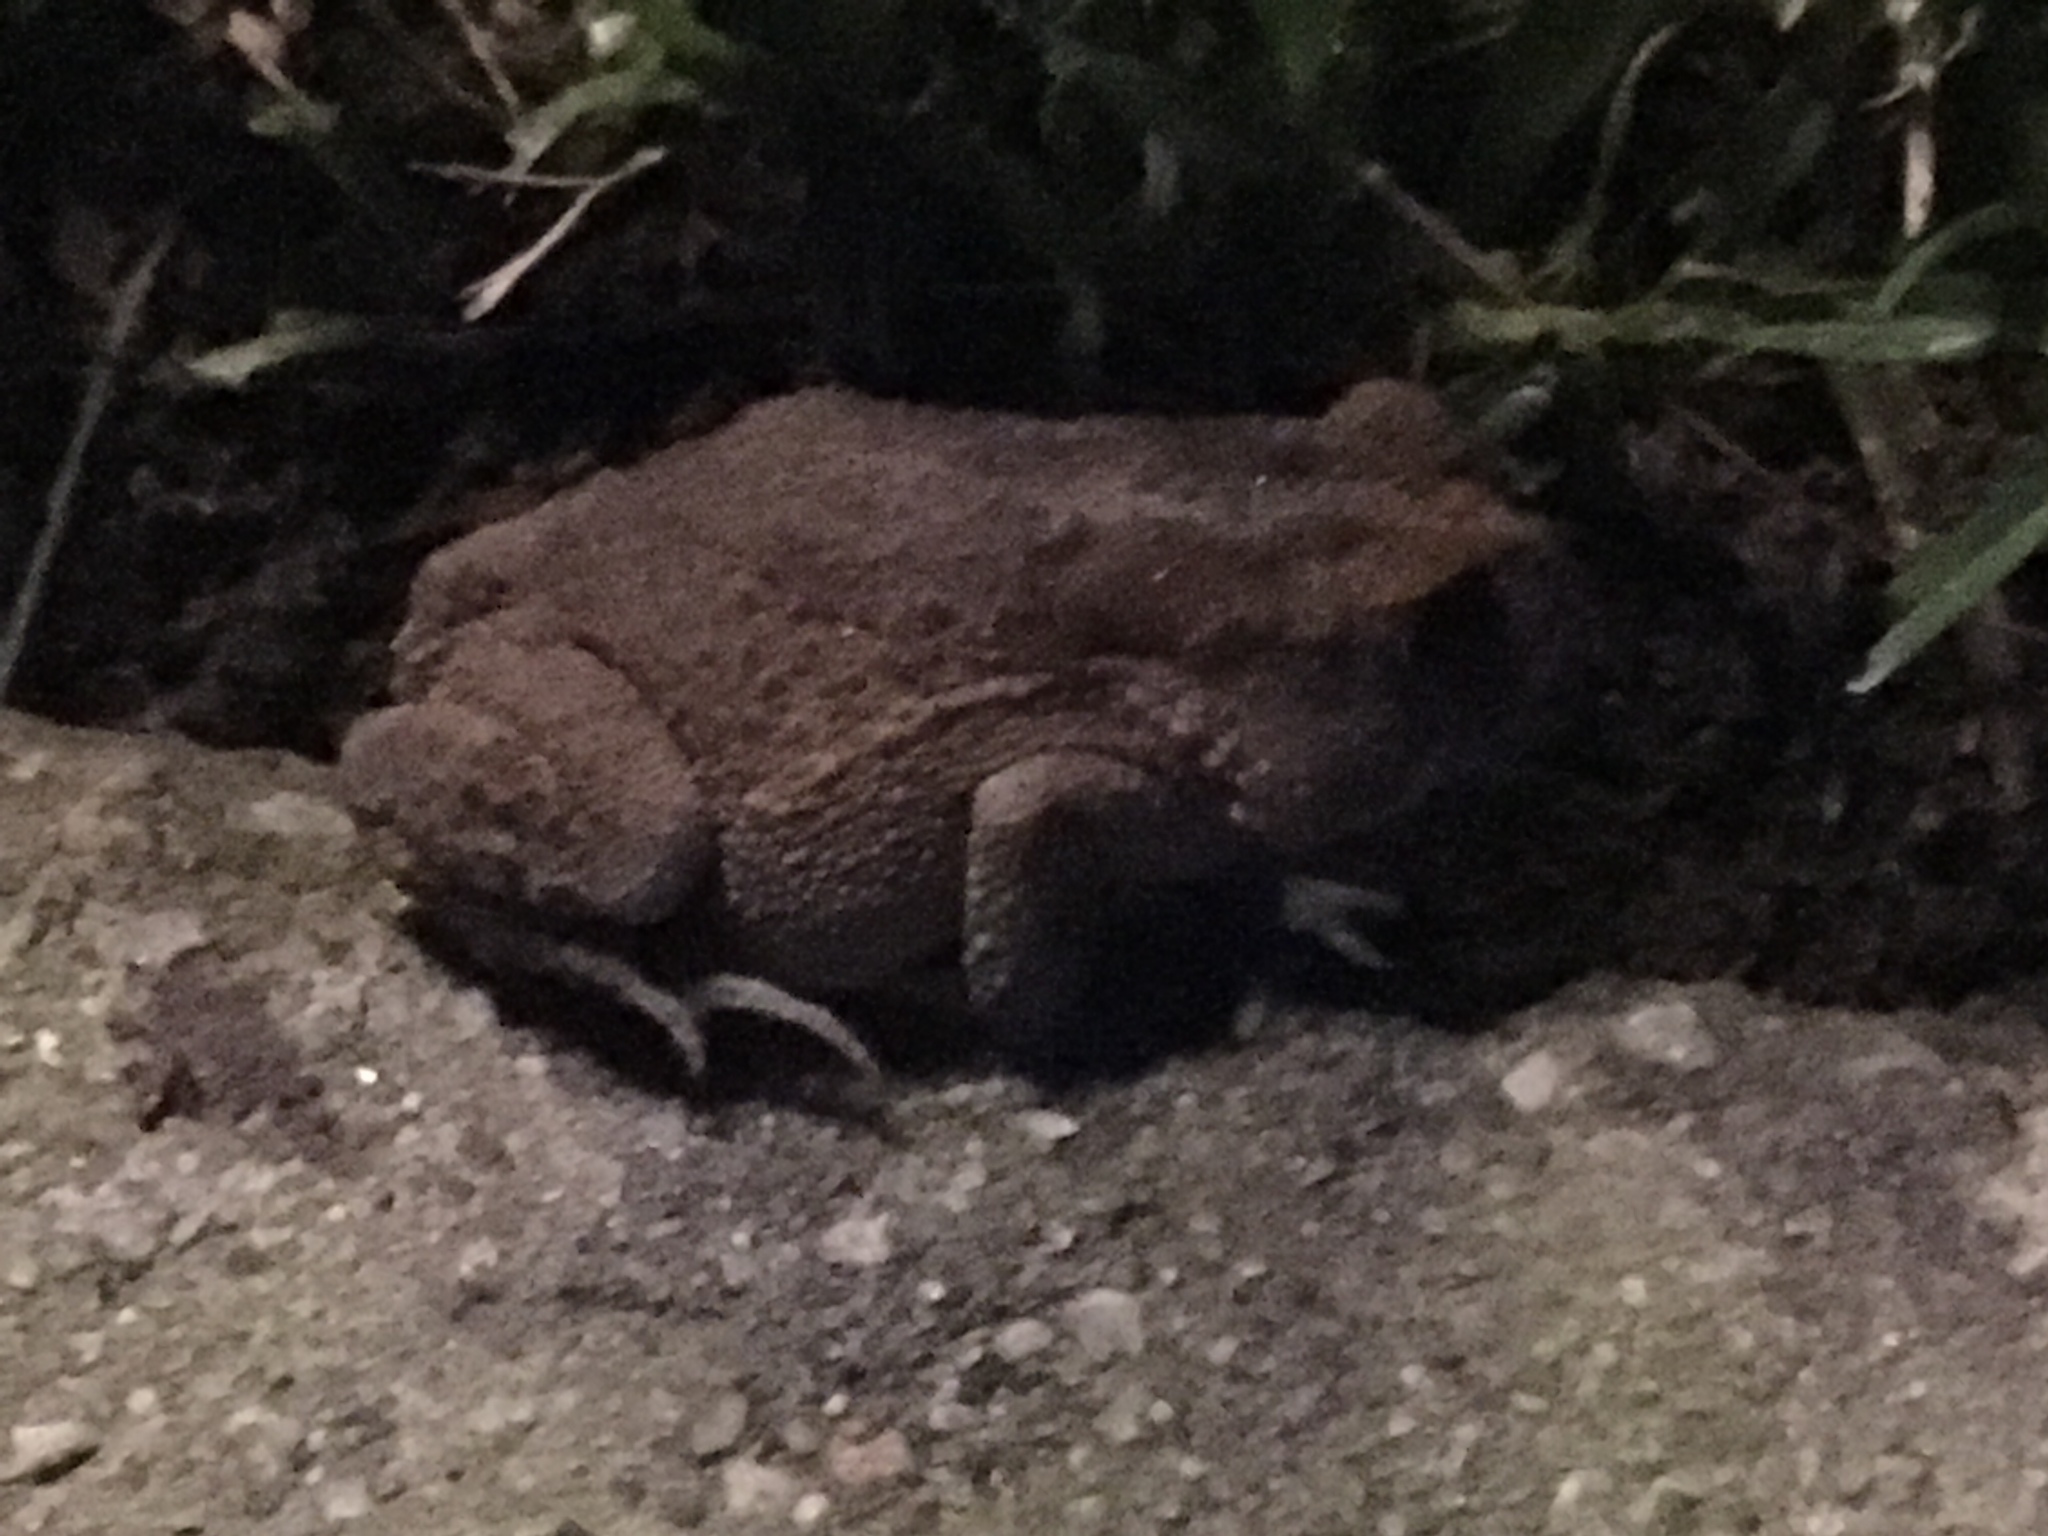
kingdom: Animalia
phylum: Chordata
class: Amphibia
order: Anura
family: Bufonidae
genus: Anaxyrus
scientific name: Anaxyrus terrestris
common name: Southern toad
